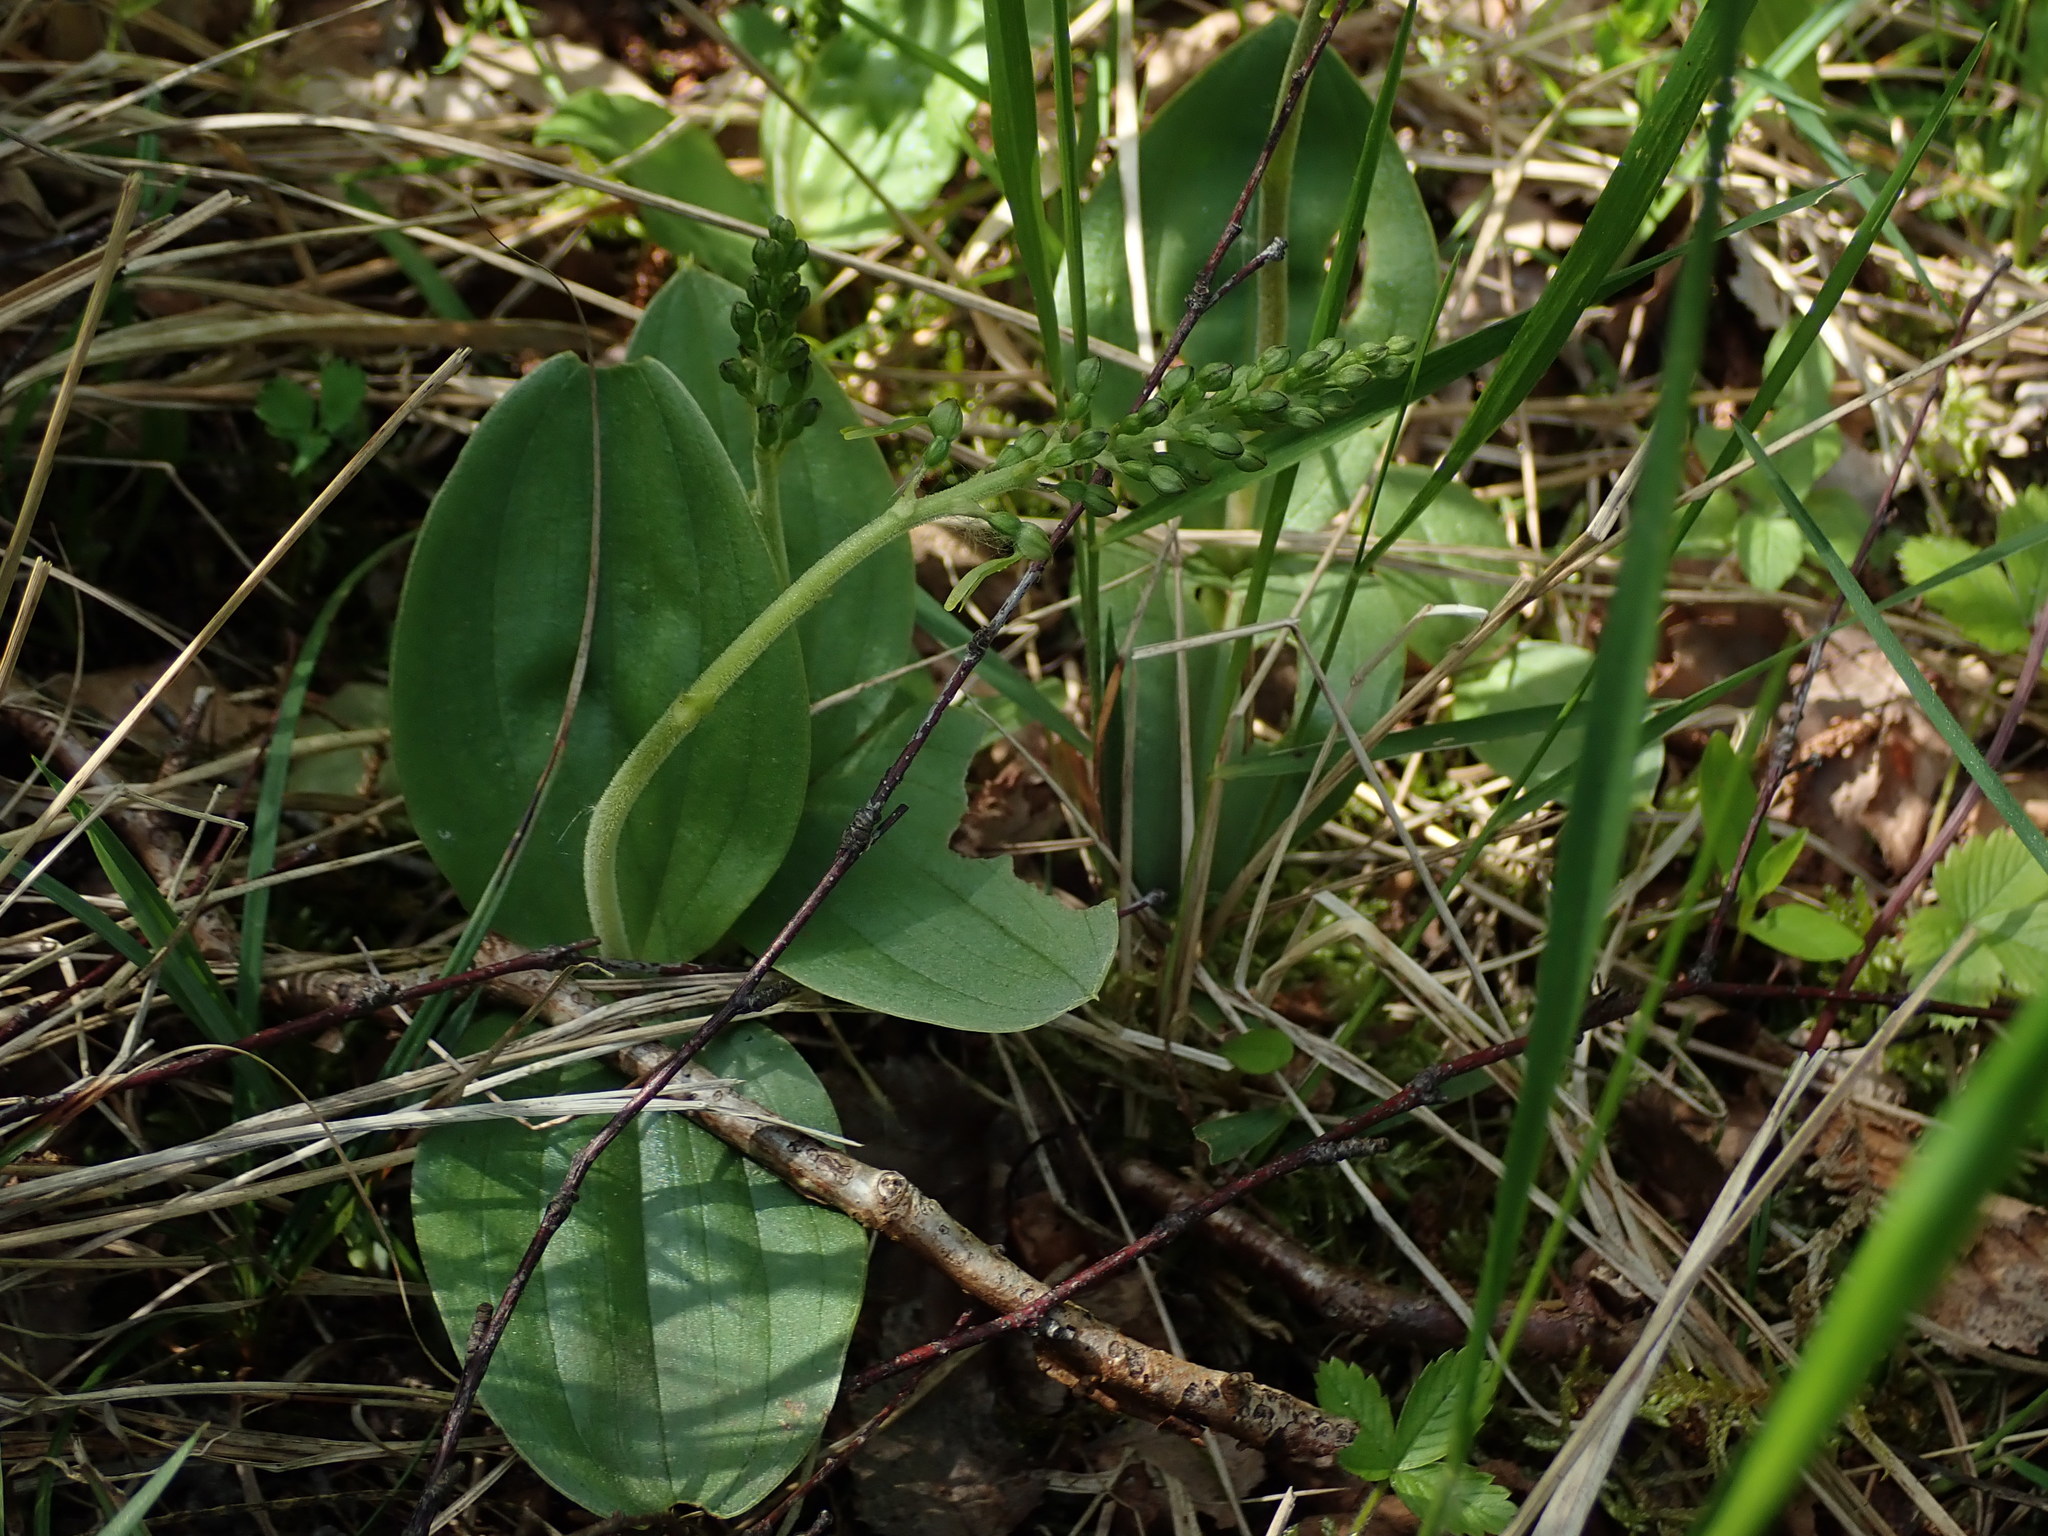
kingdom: Plantae
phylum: Tracheophyta
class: Liliopsida
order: Asparagales
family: Orchidaceae
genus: Neottia
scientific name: Neottia ovata
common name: Common twayblade
